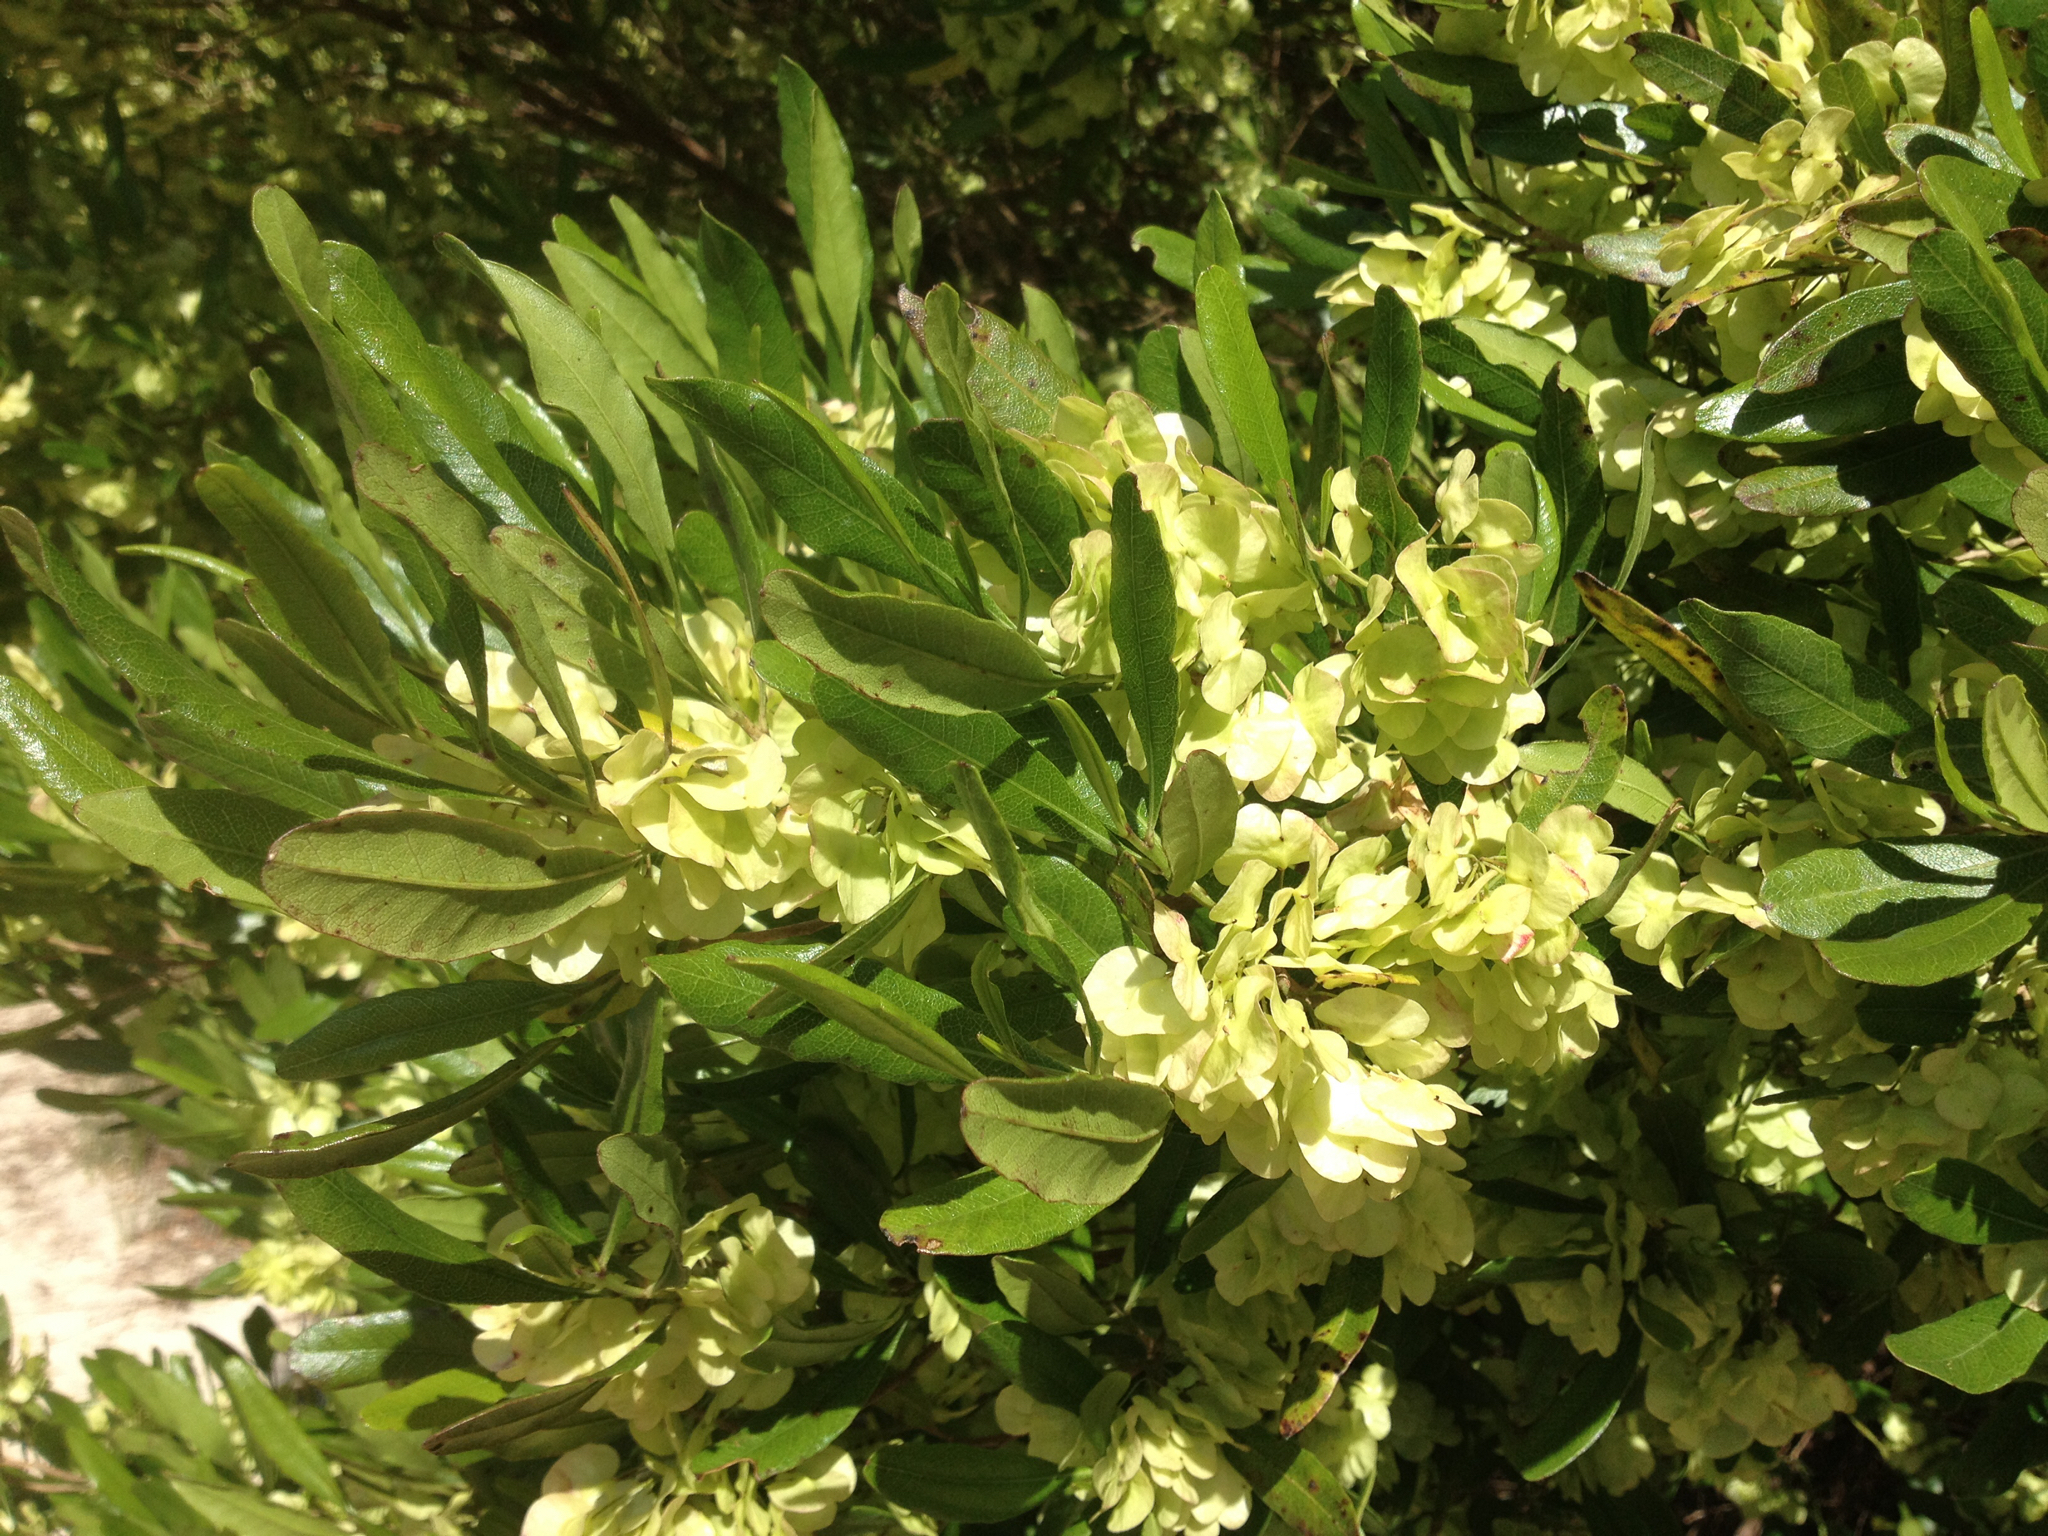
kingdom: Plantae
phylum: Tracheophyta
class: Magnoliopsida
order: Sapindales
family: Sapindaceae
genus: Dodonaea
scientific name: Dodonaea viscosa
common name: Hopbush
